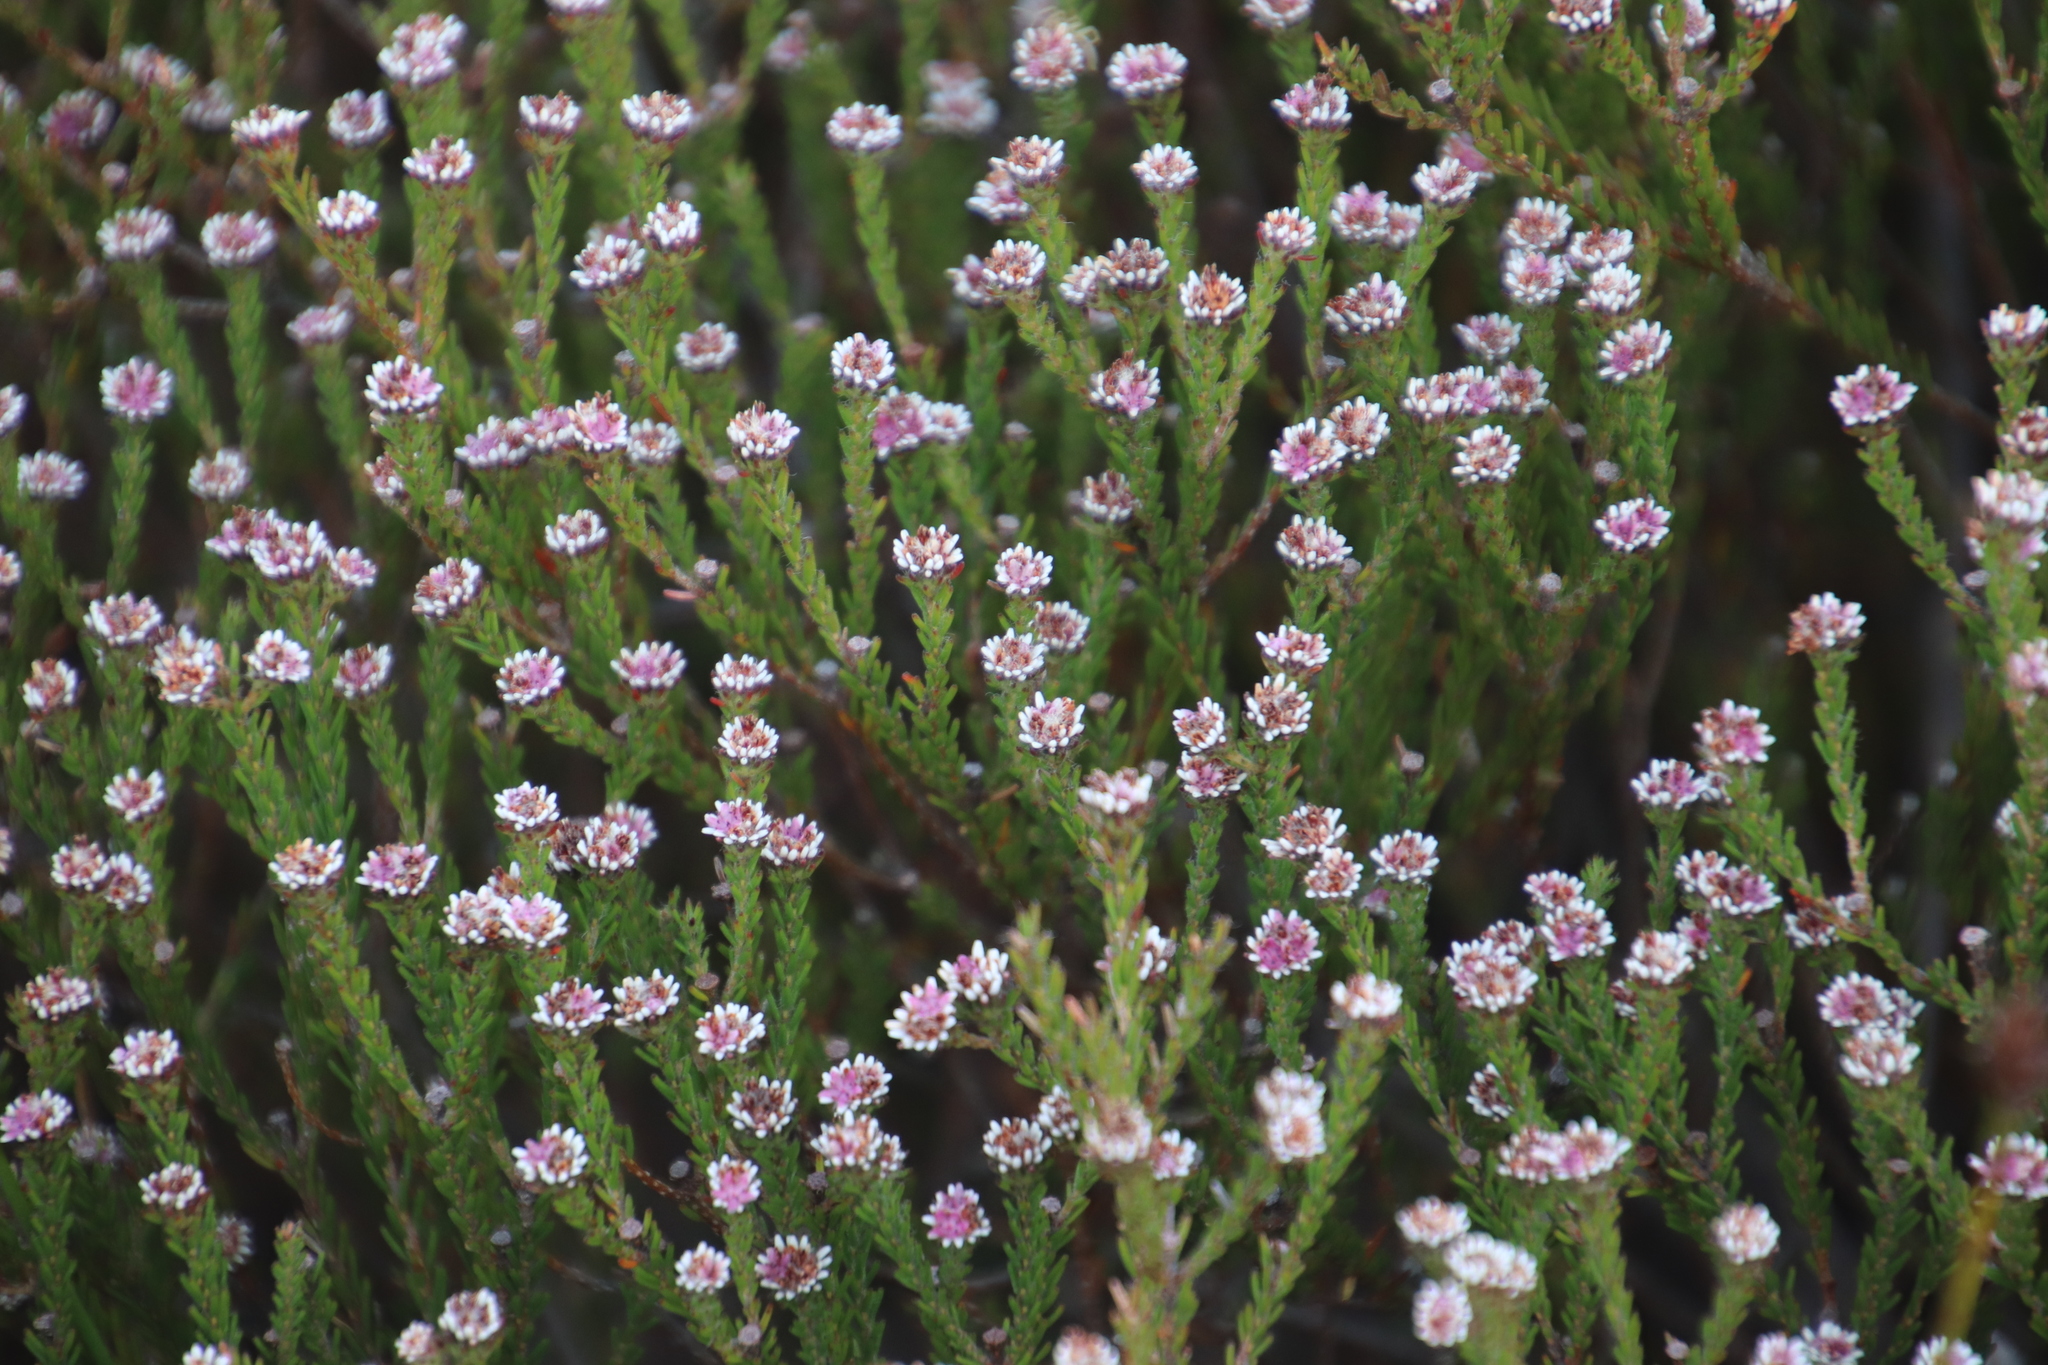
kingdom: Plantae
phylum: Tracheophyta
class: Magnoliopsida
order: Bruniales
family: Bruniaceae
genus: Staavia
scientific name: Staavia radiata
